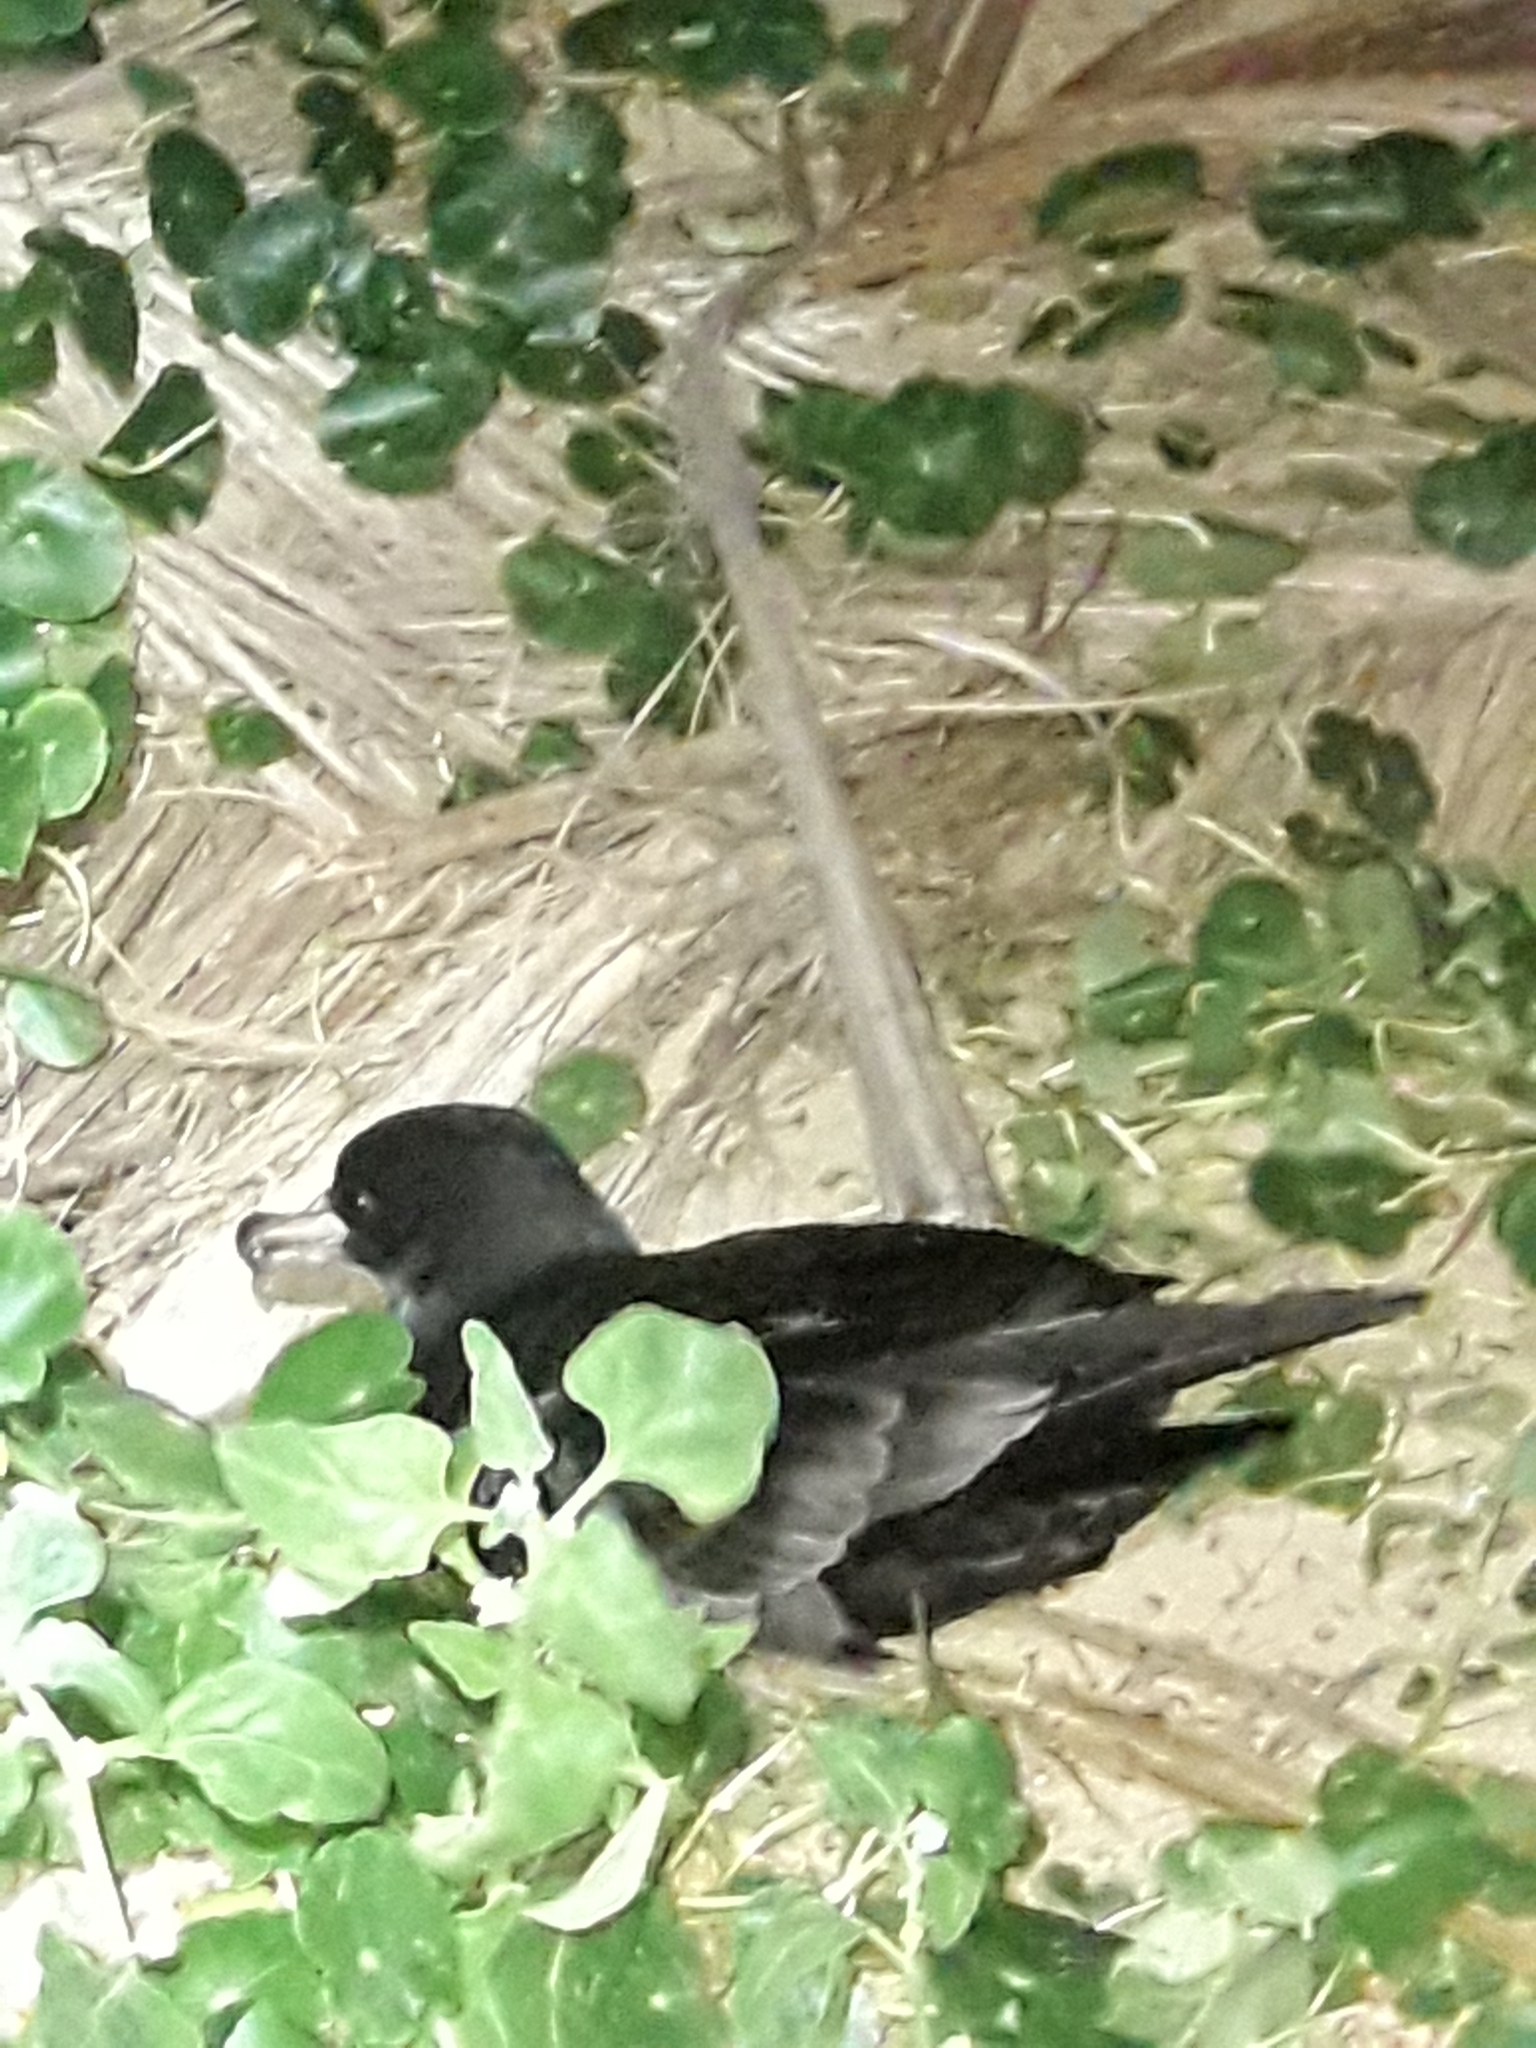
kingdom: Animalia
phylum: Chordata
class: Aves
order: Procellariiformes
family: Procellariidae
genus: Puffinus
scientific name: Puffinus carneipes
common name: Flesh-footed shearwater
